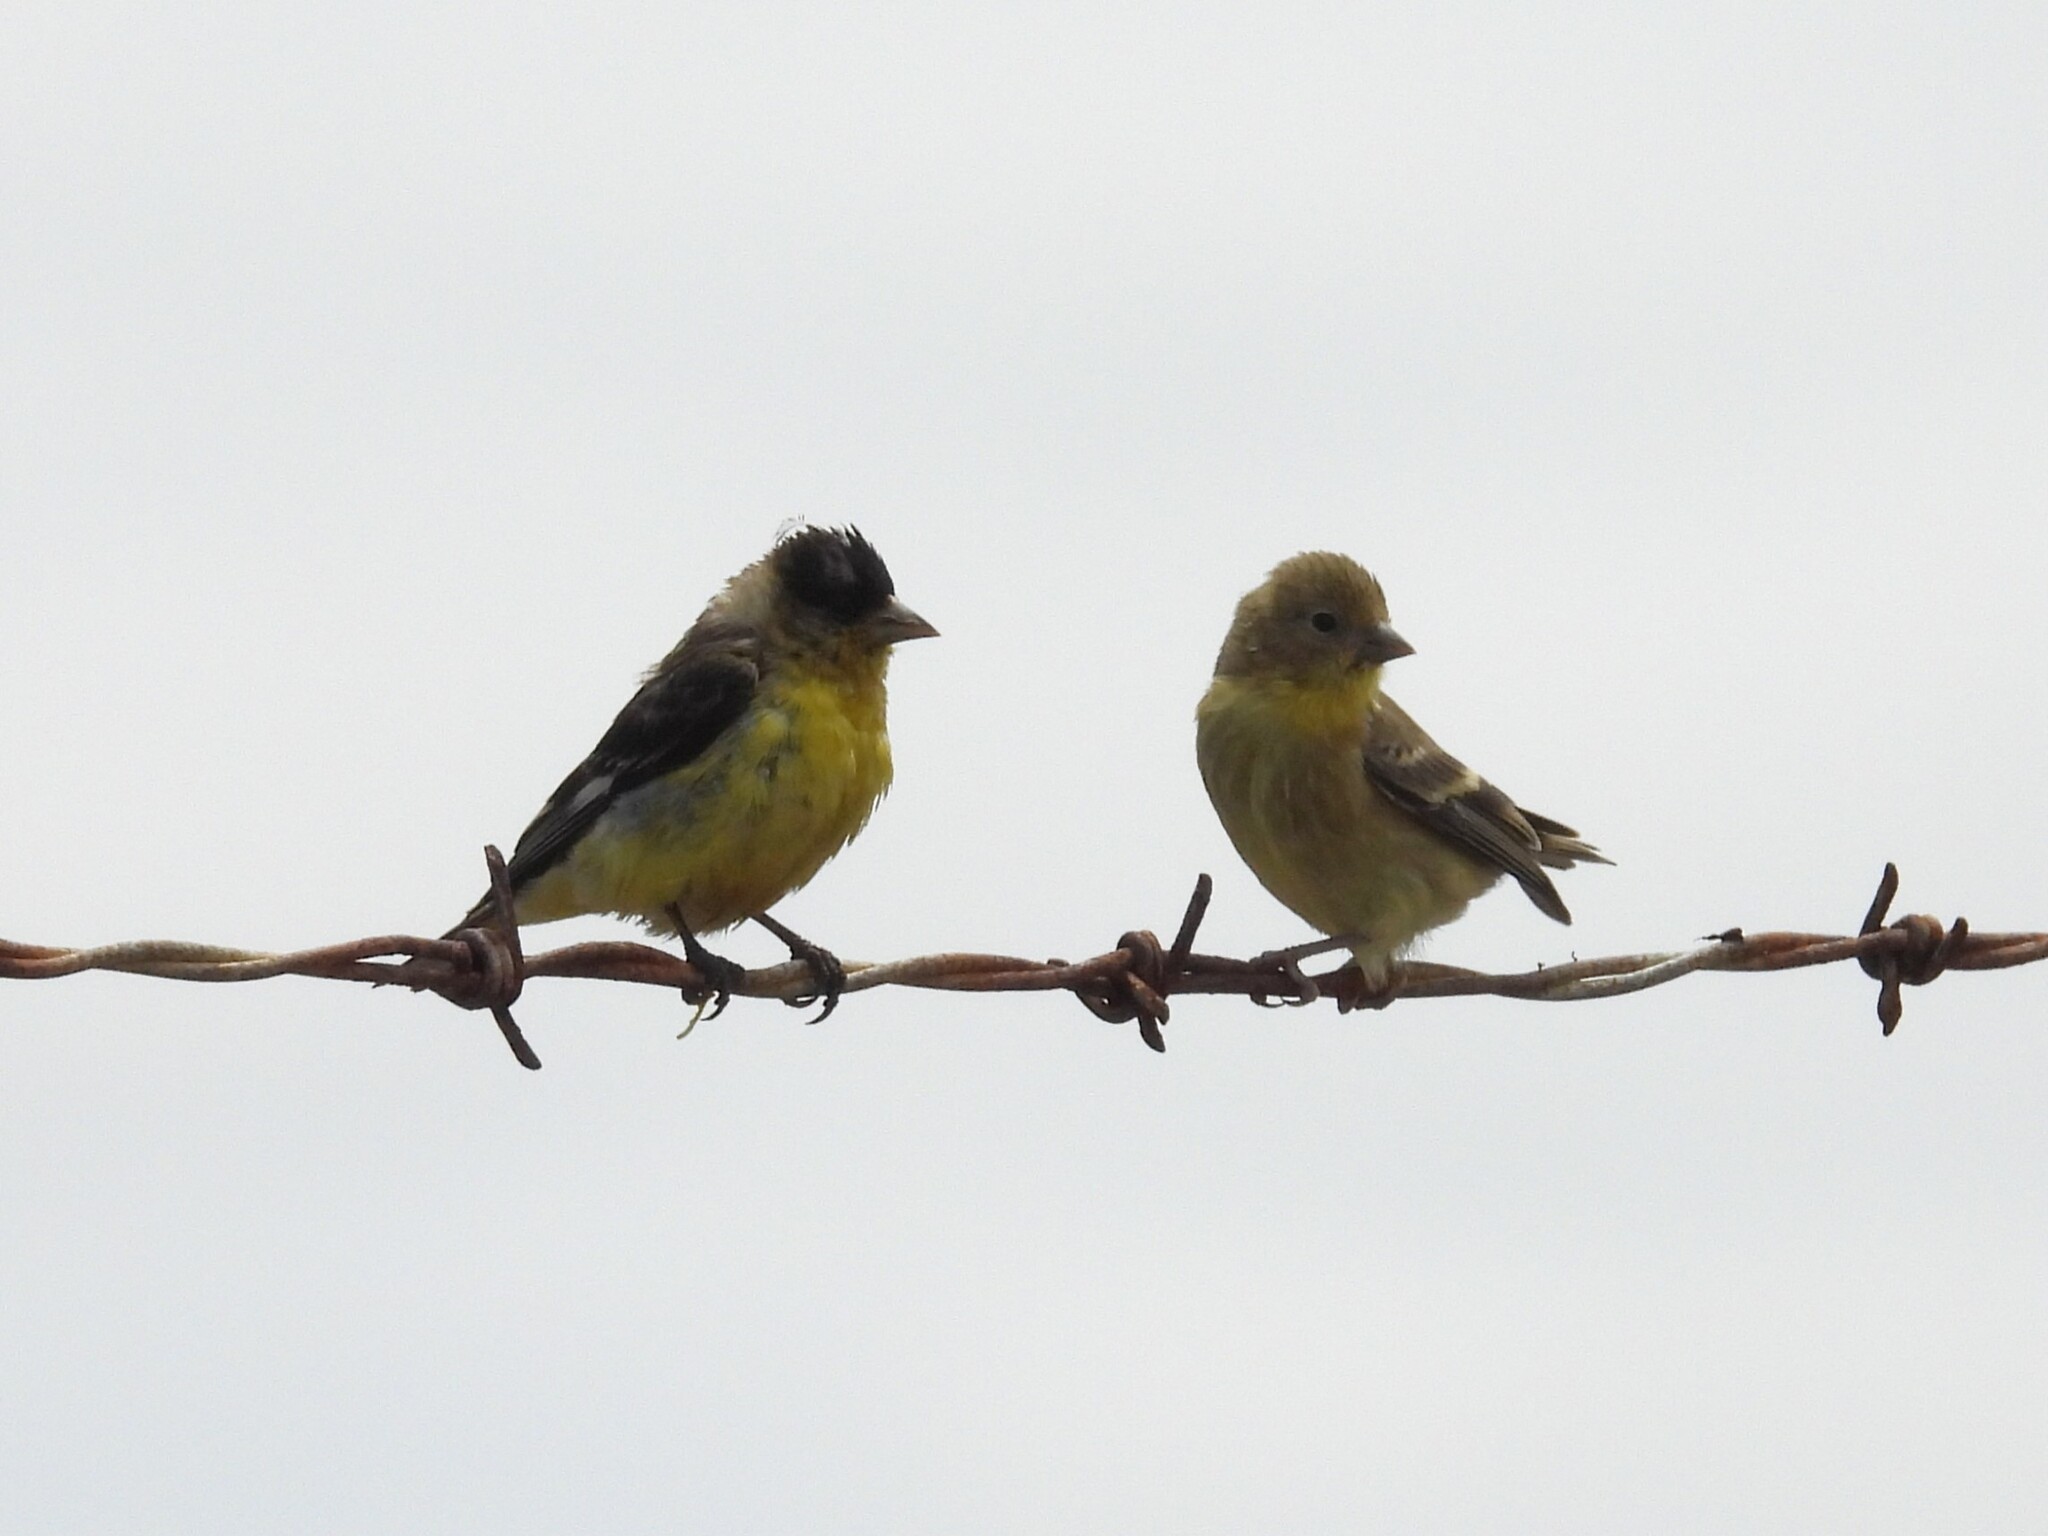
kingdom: Animalia
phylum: Chordata
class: Aves
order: Passeriformes
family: Fringillidae
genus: Spinus
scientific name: Spinus psaltria
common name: Lesser goldfinch
